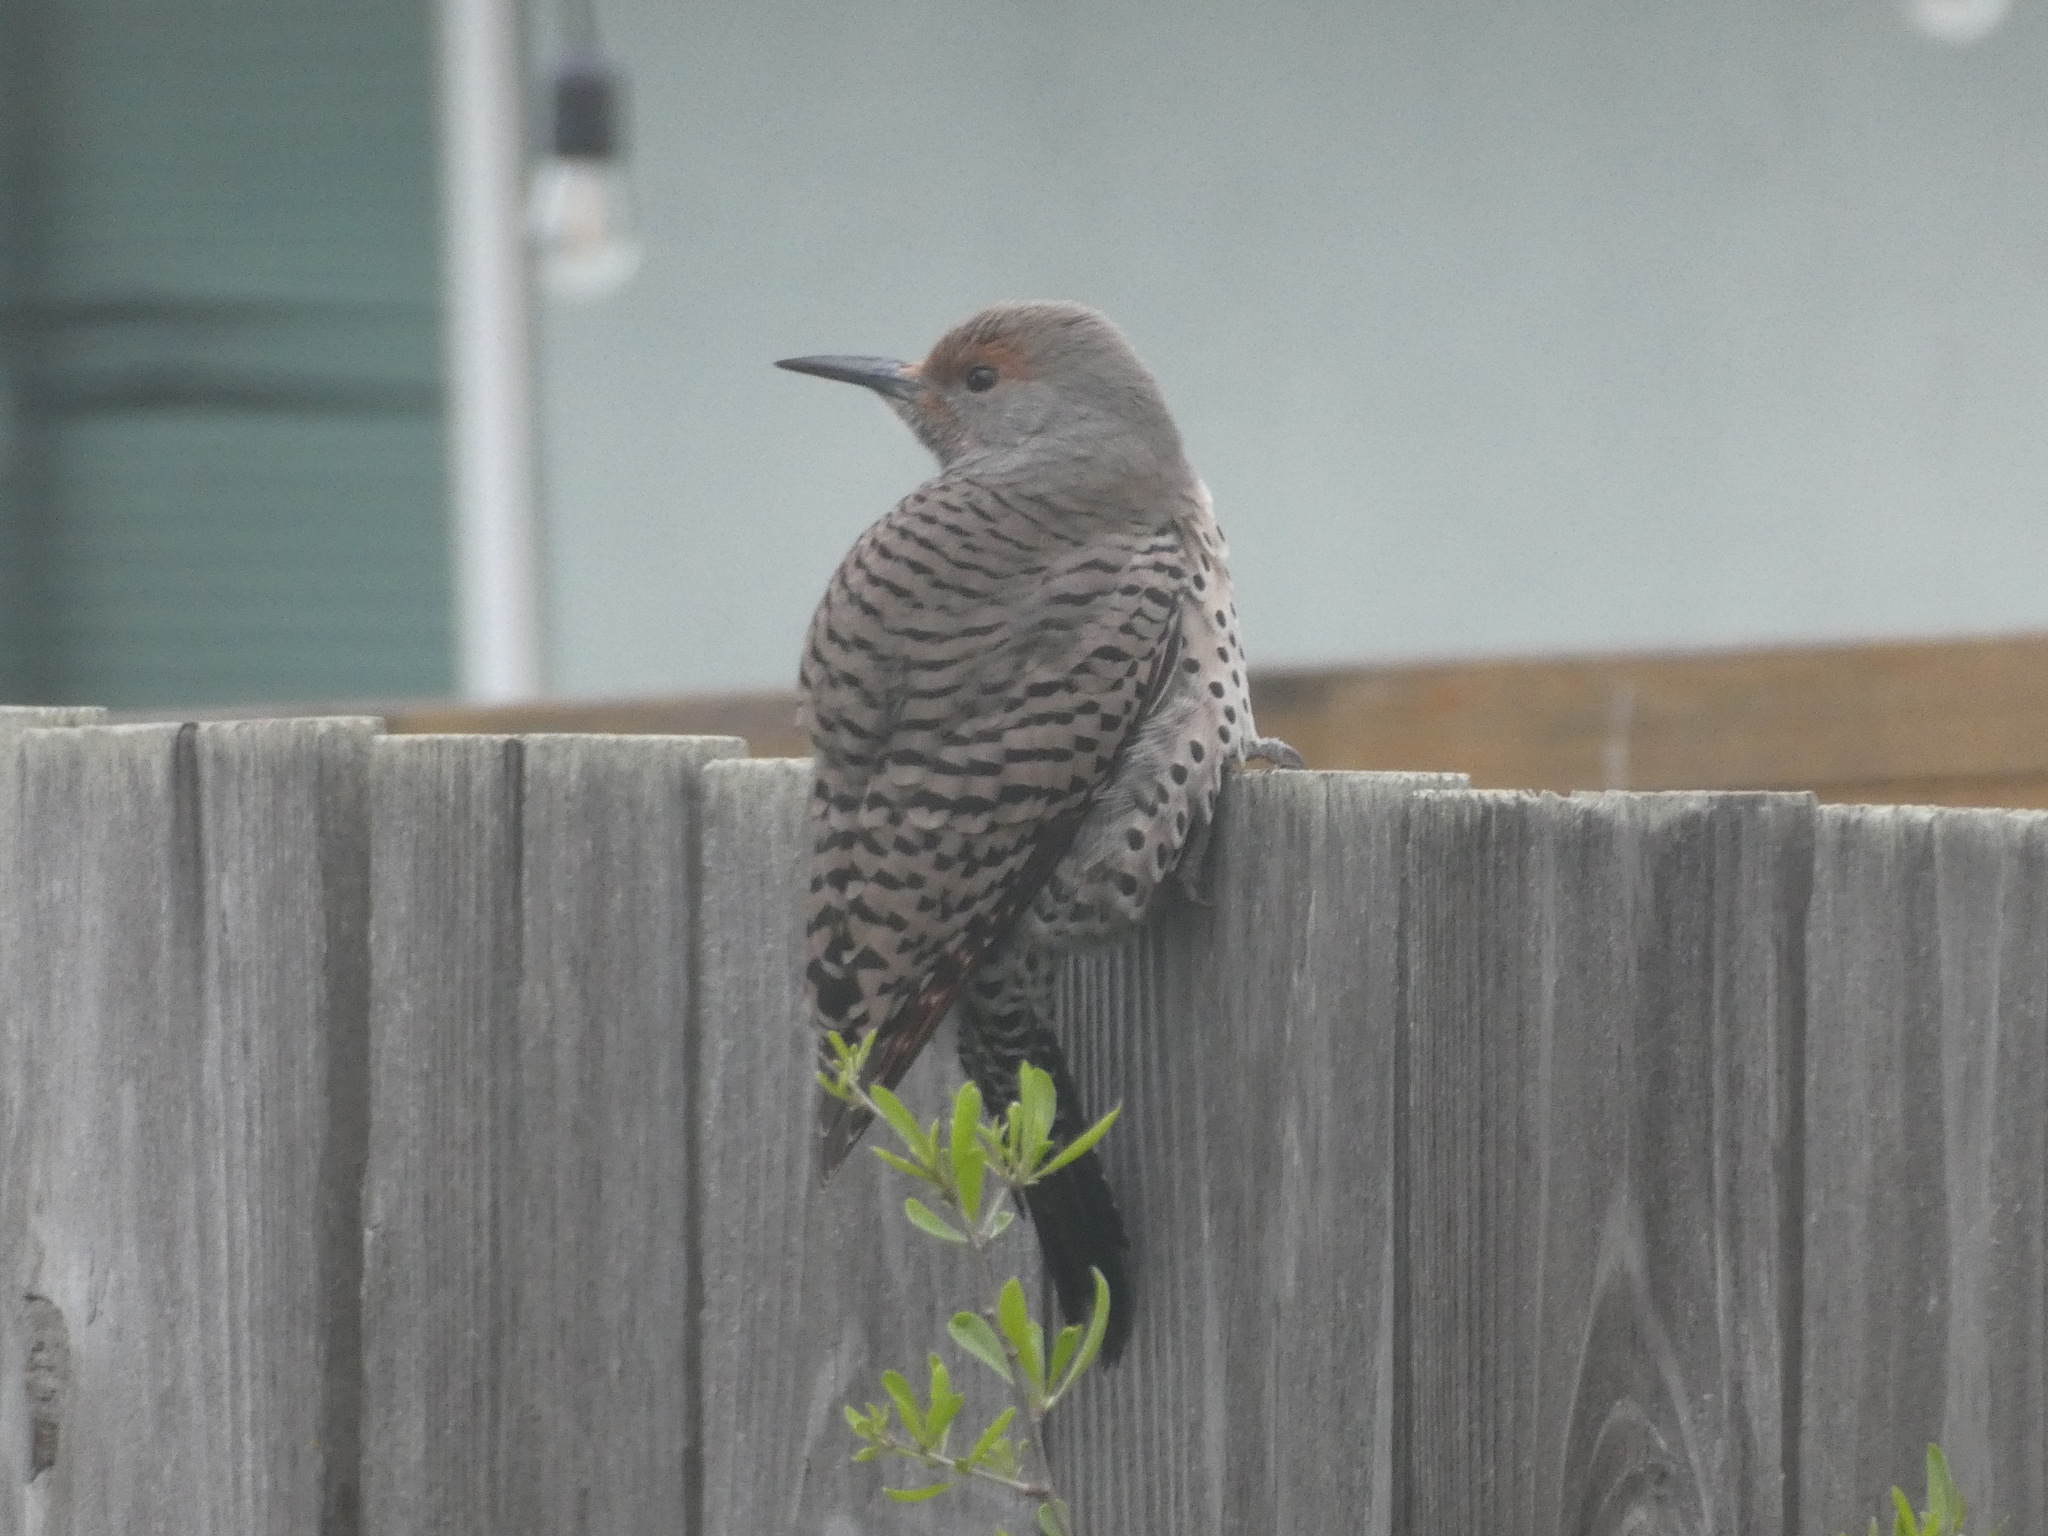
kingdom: Animalia
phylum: Chordata
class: Aves
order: Piciformes
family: Picidae
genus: Colaptes
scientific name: Colaptes auratus
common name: Northern flicker
